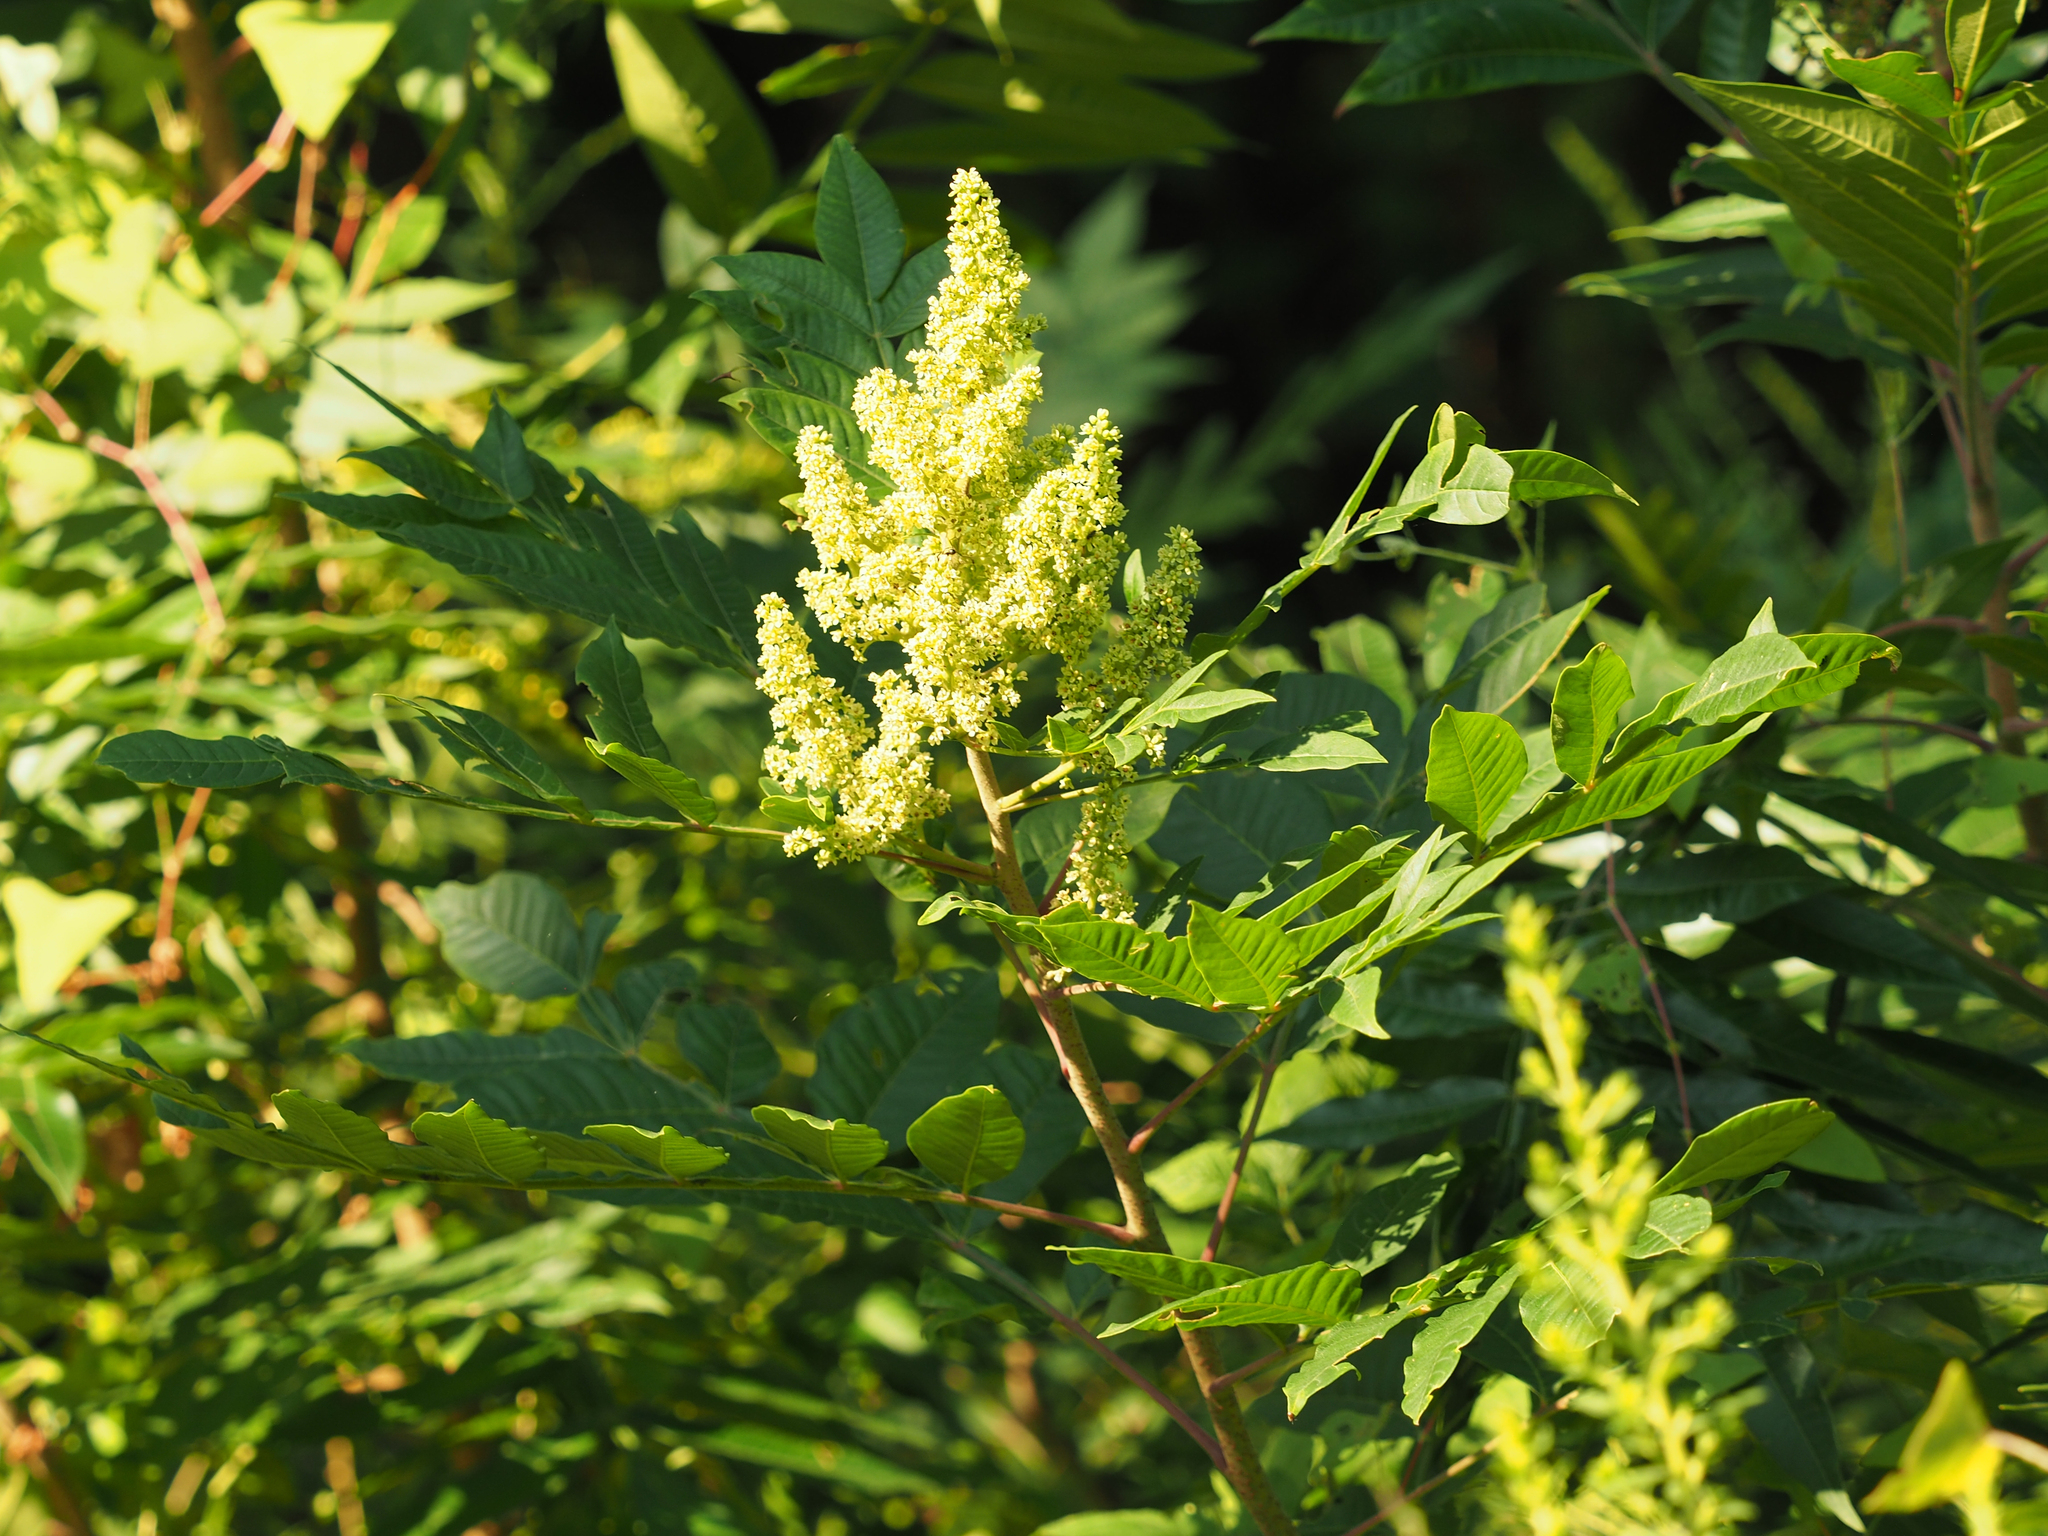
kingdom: Plantae
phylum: Tracheophyta
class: Magnoliopsida
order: Sapindales
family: Anacardiaceae
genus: Rhus
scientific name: Rhus glabra
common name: Scarlet sumac
